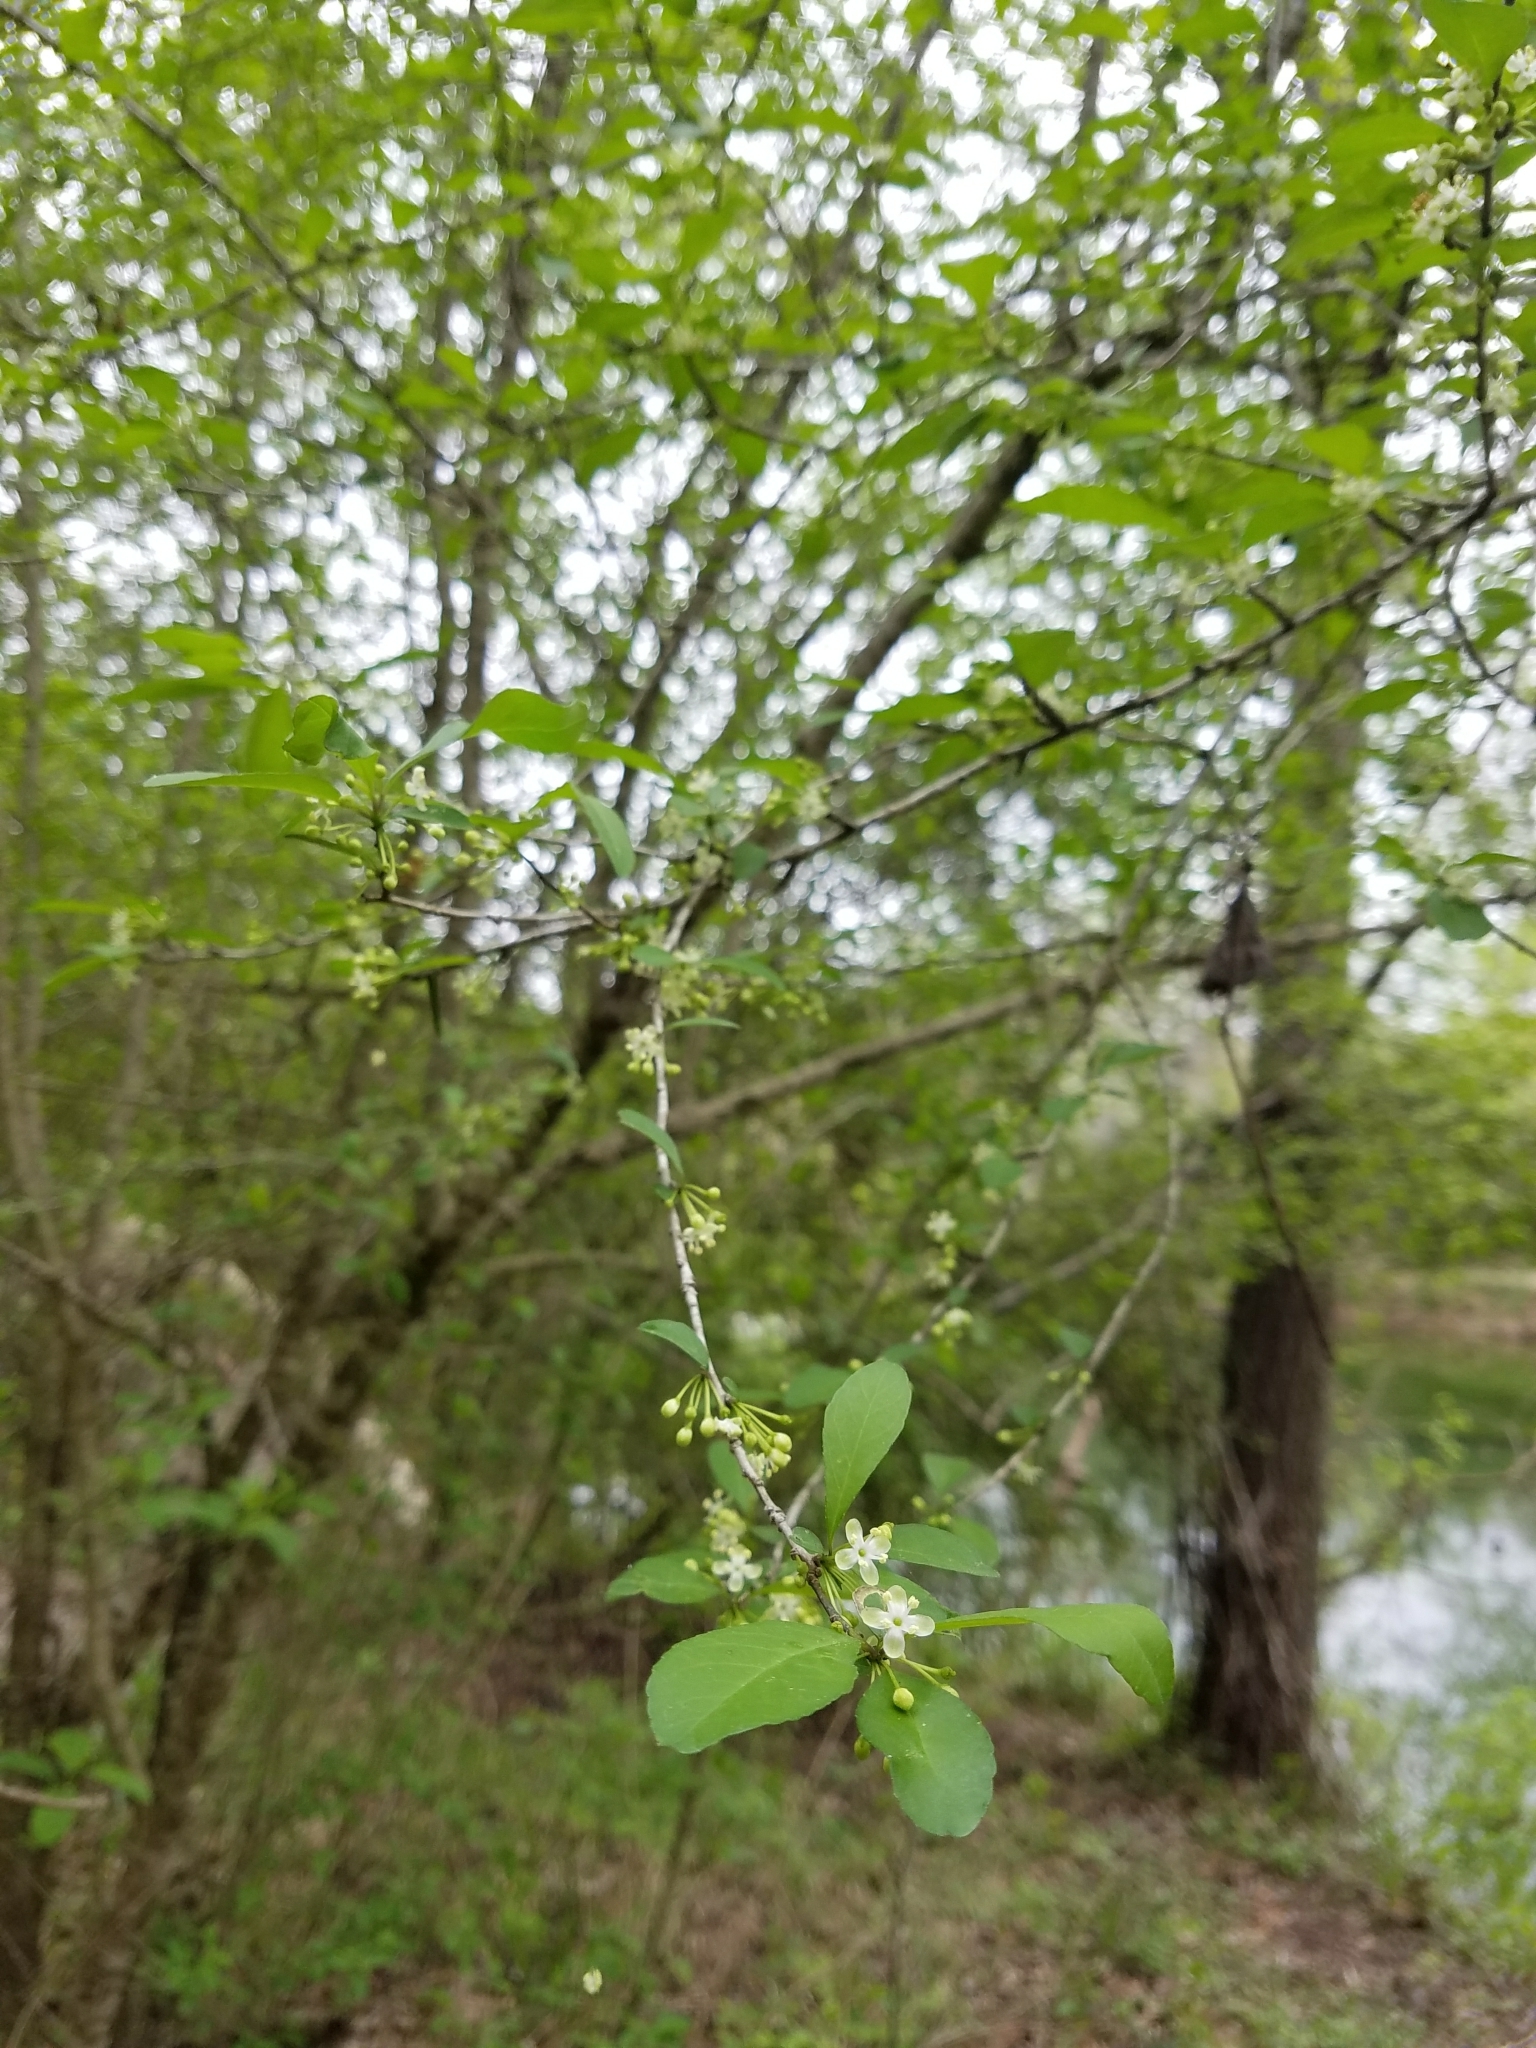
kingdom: Plantae
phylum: Tracheophyta
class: Magnoliopsida
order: Aquifoliales
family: Aquifoliaceae
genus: Ilex
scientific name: Ilex decidua
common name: Possum-haw
